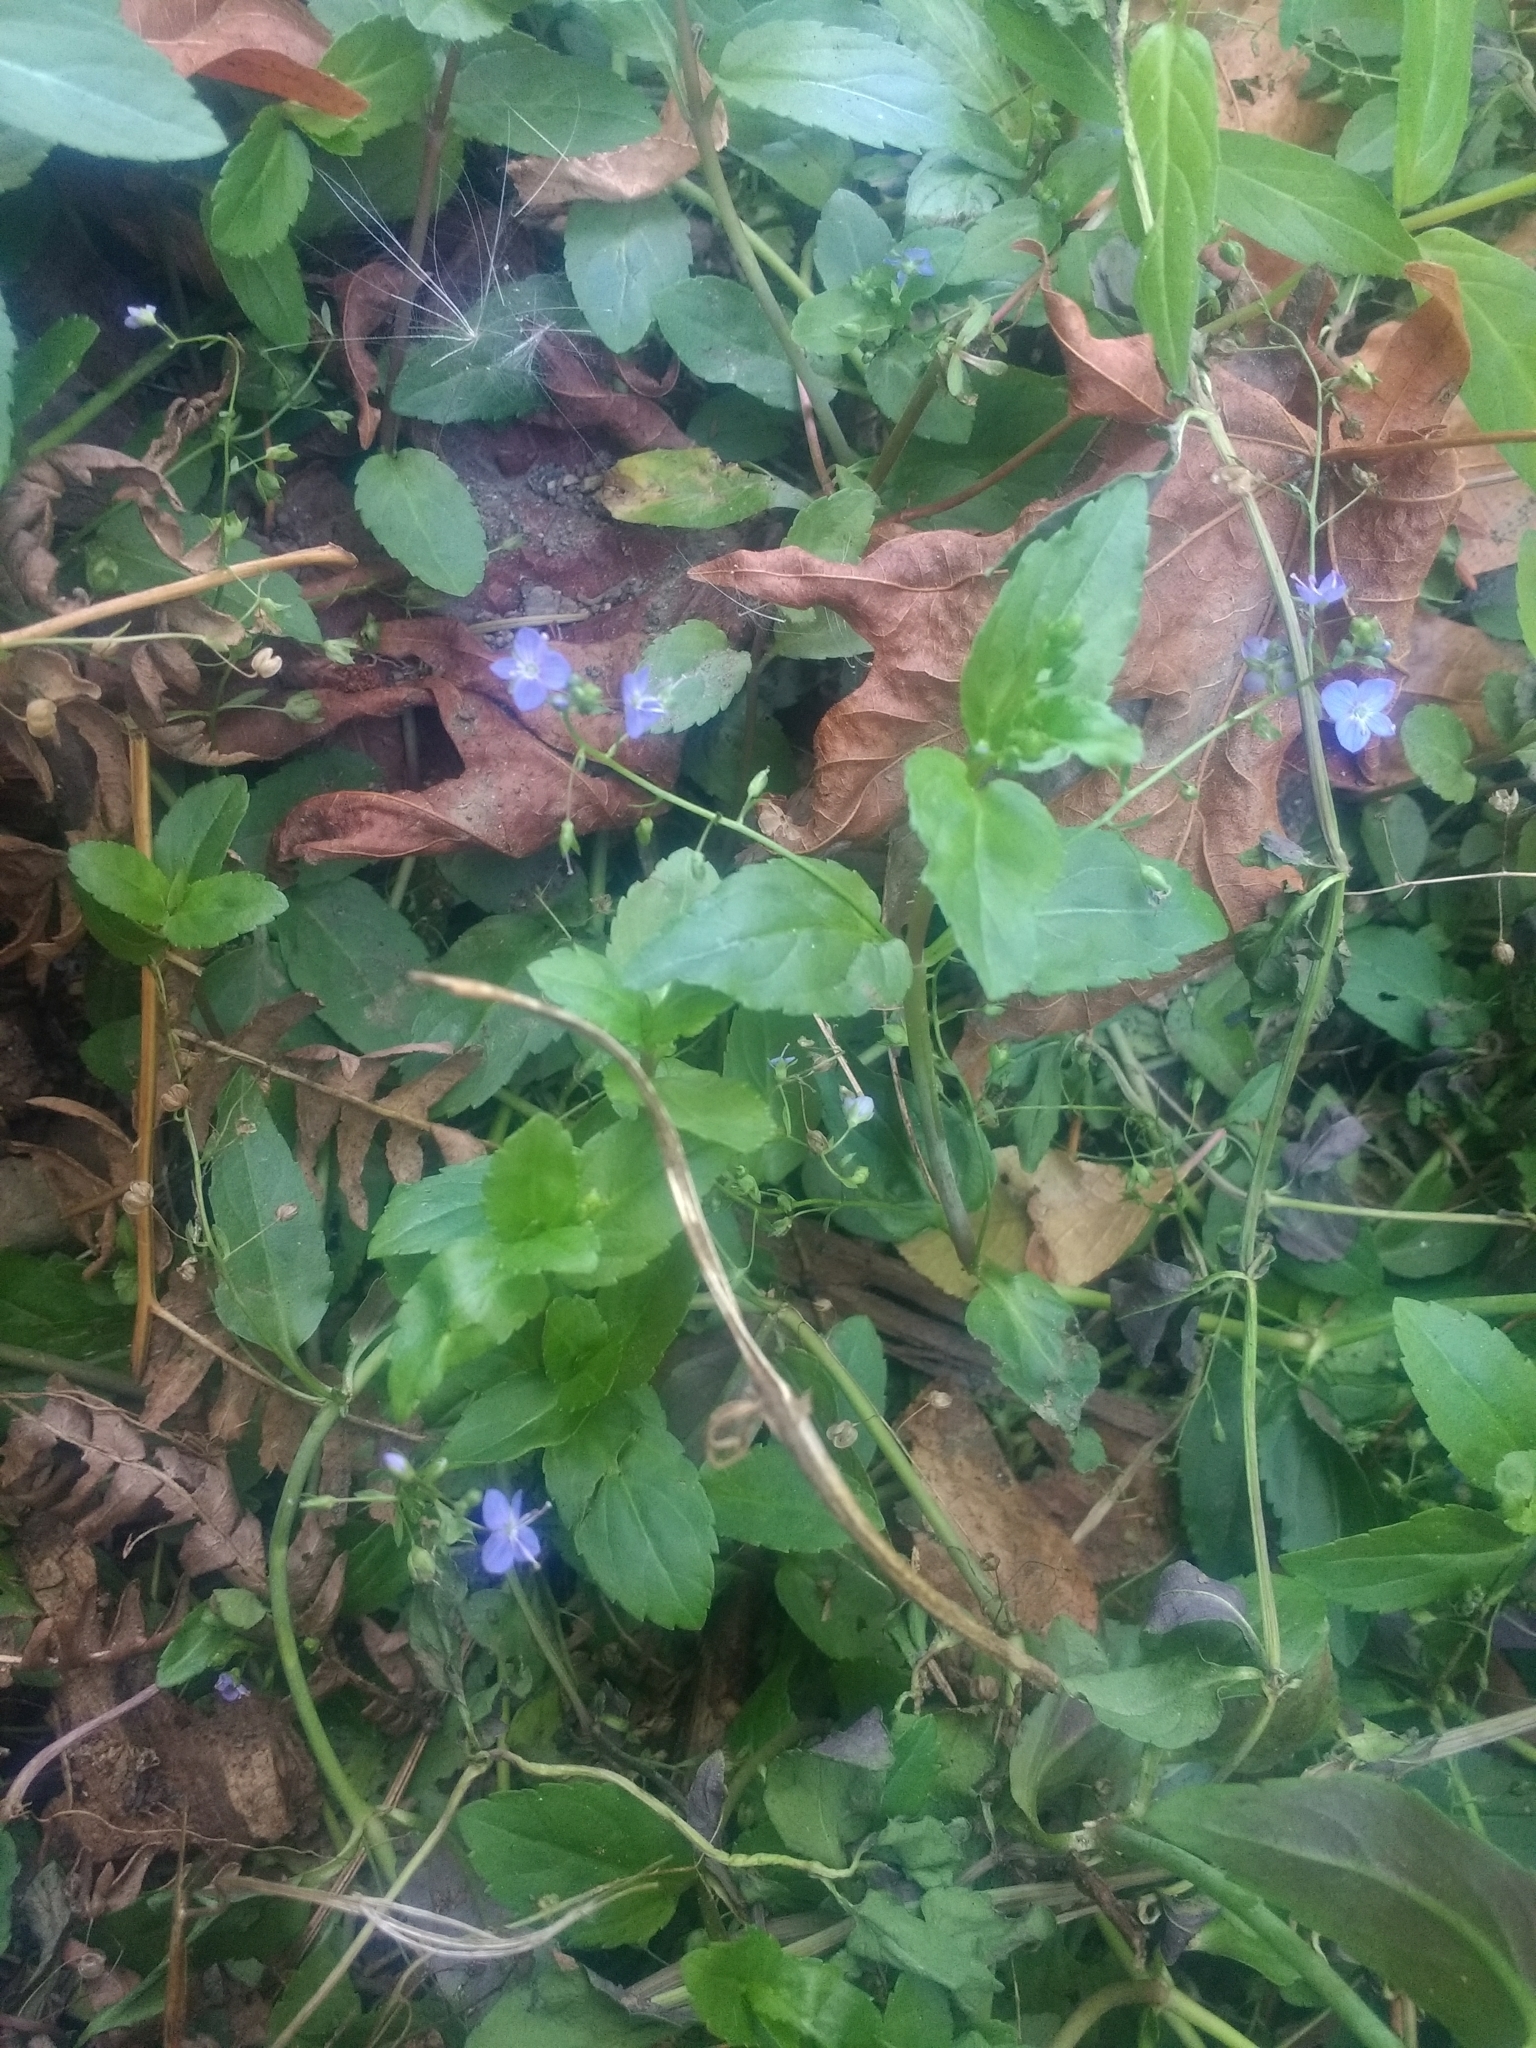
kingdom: Plantae
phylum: Tracheophyta
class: Magnoliopsida
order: Lamiales
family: Plantaginaceae
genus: Veronica
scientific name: Veronica americana
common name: American brooklime
